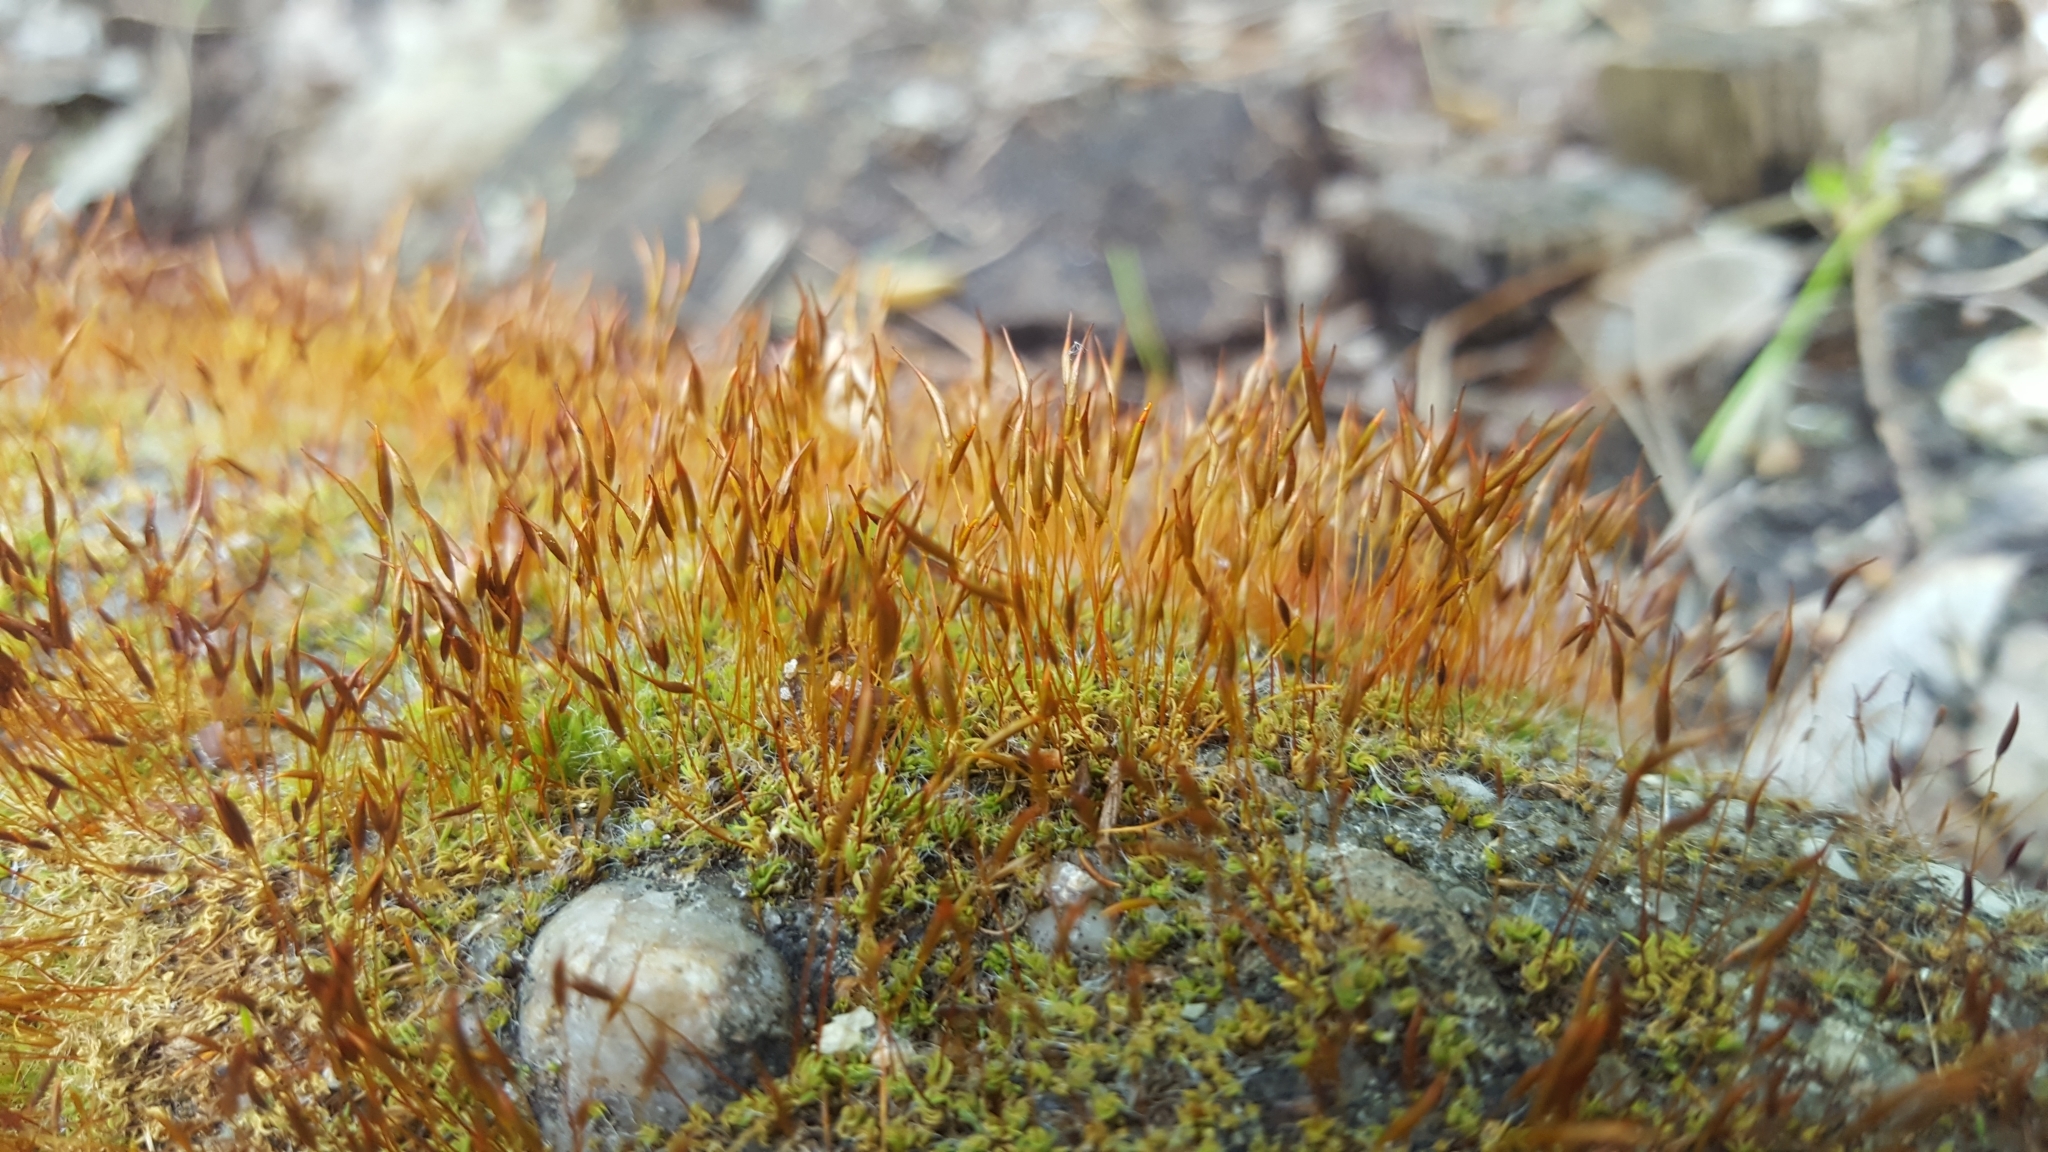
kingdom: Plantae
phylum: Bryophyta
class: Bryopsida
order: Pottiales
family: Pottiaceae
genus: Tortula
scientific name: Tortula muralis
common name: Wall screw-moss
